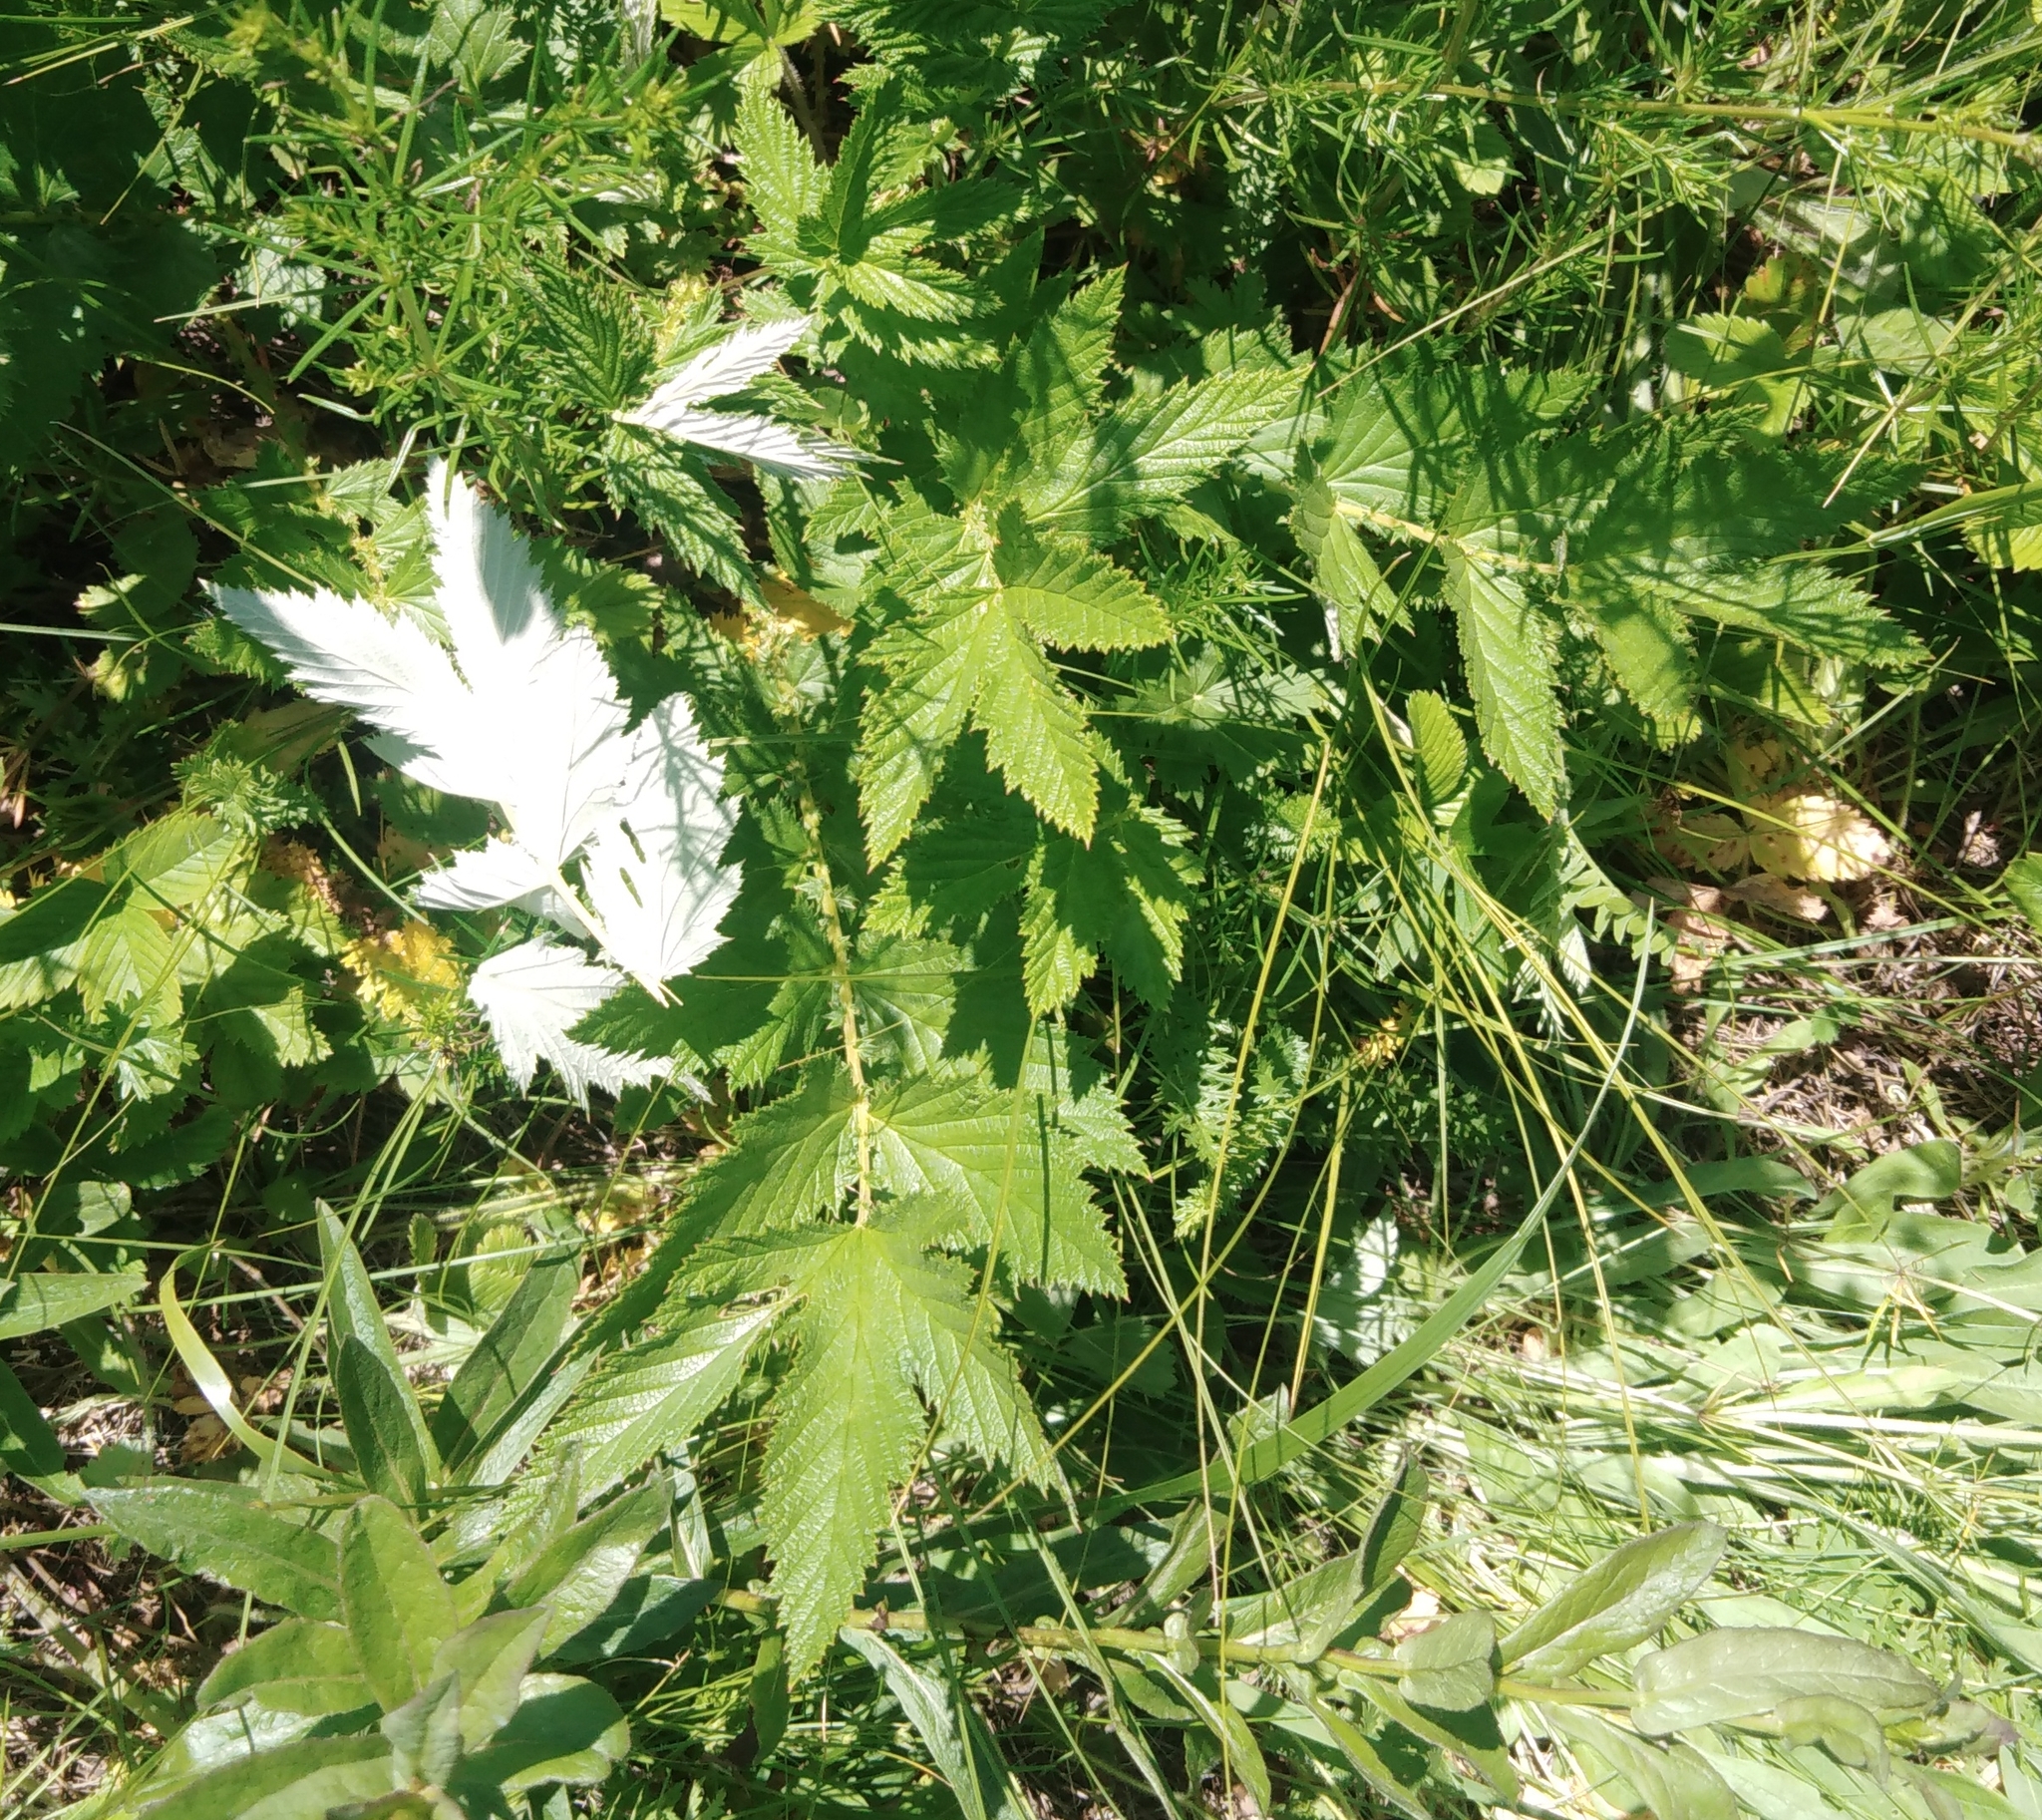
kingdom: Plantae
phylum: Tracheophyta
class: Magnoliopsida
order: Rosales
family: Rosaceae
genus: Filipendula
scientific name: Filipendula ulmaria
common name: Meadowsweet
